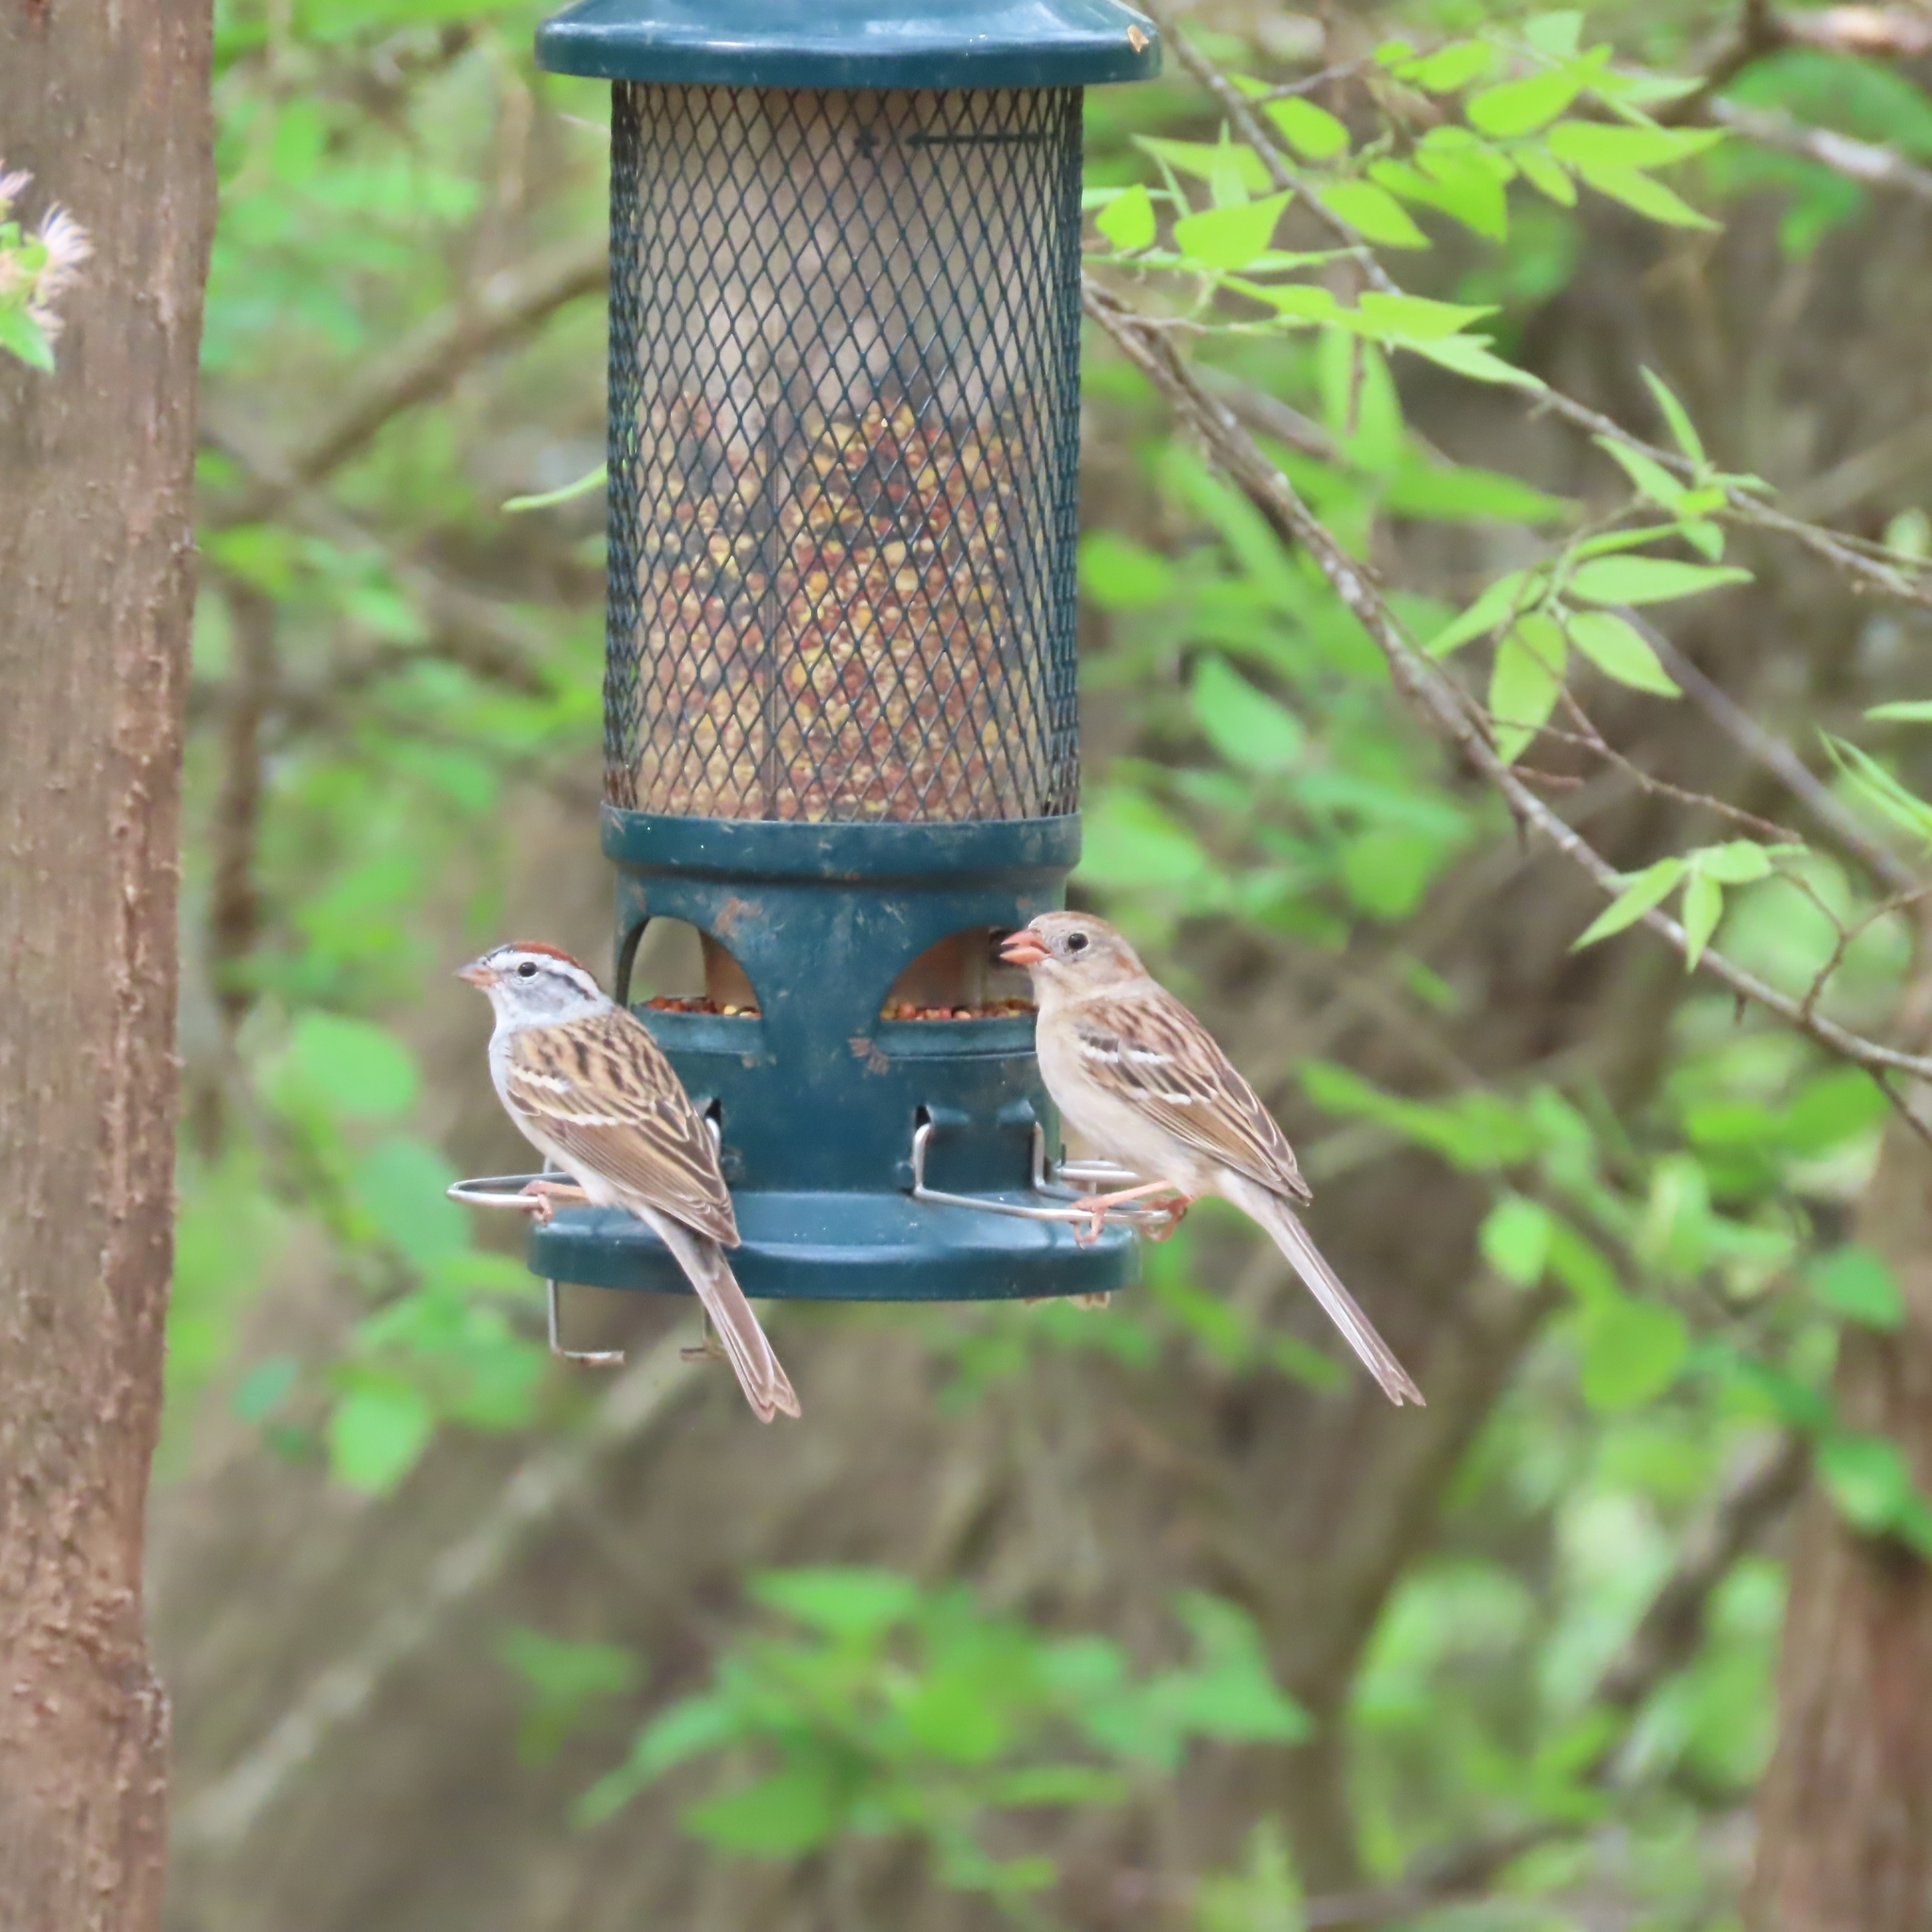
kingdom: Animalia
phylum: Chordata
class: Aves
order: Passeriformes
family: Passerellidae
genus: Spizella
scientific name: Spizella passerina
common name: Chipping sparrow
